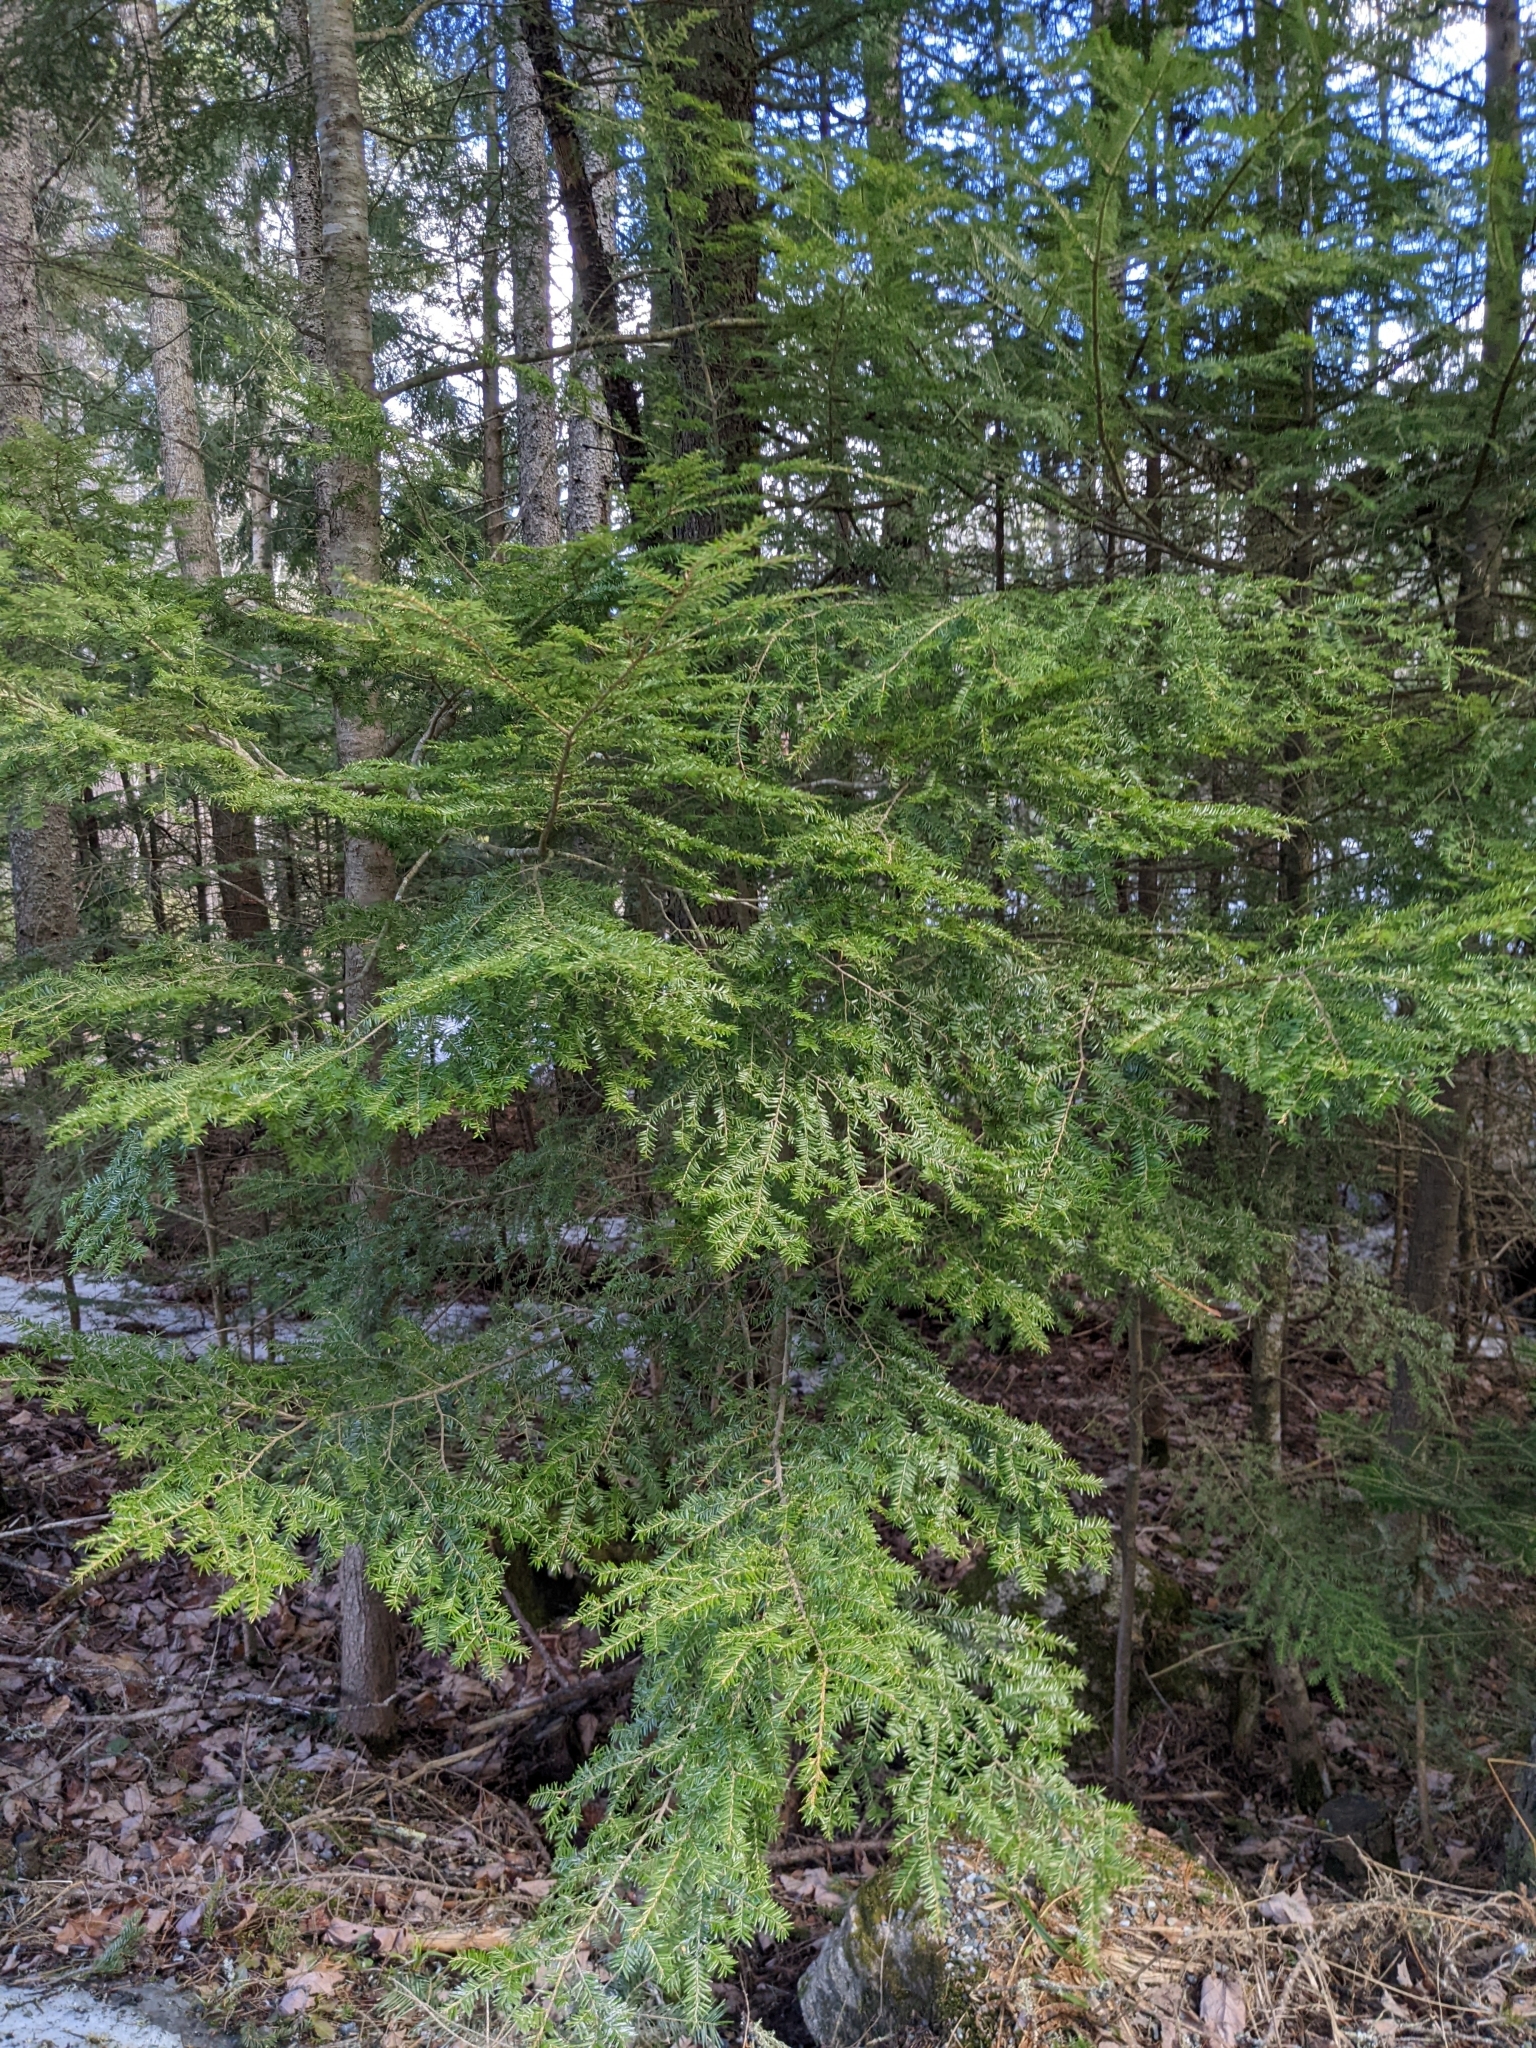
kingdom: Plantae
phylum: Tracheophyta
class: Pinopsida
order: Pinales
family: Pinaceae
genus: Tsuga
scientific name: Tsuga canadensis
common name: Eastern hemlock
